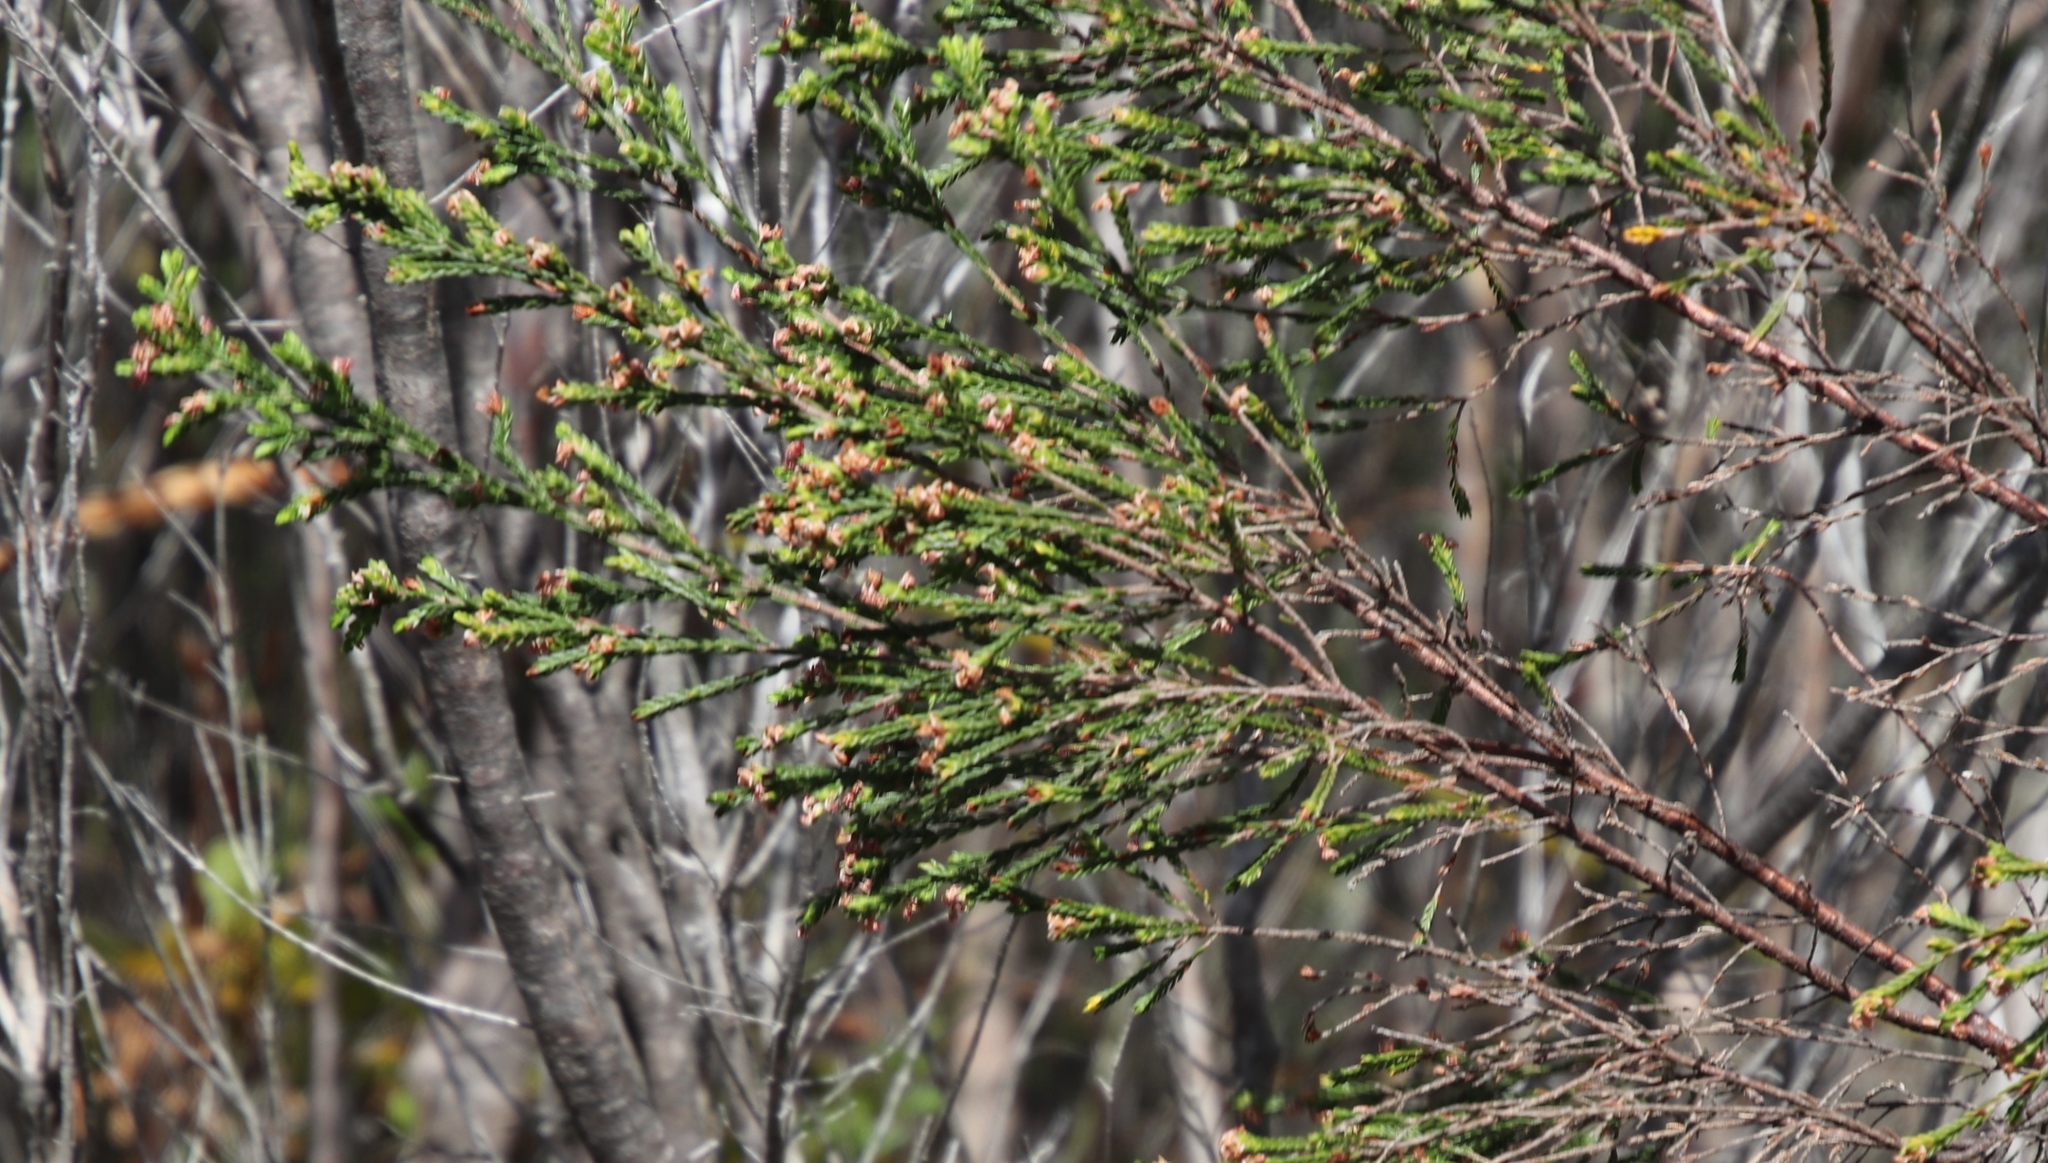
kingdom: Plantae
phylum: Tracheophyta
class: Magnoliopsida
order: Malvales
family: Thymelaeaceae
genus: Passerina
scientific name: Passerina corymbosa
